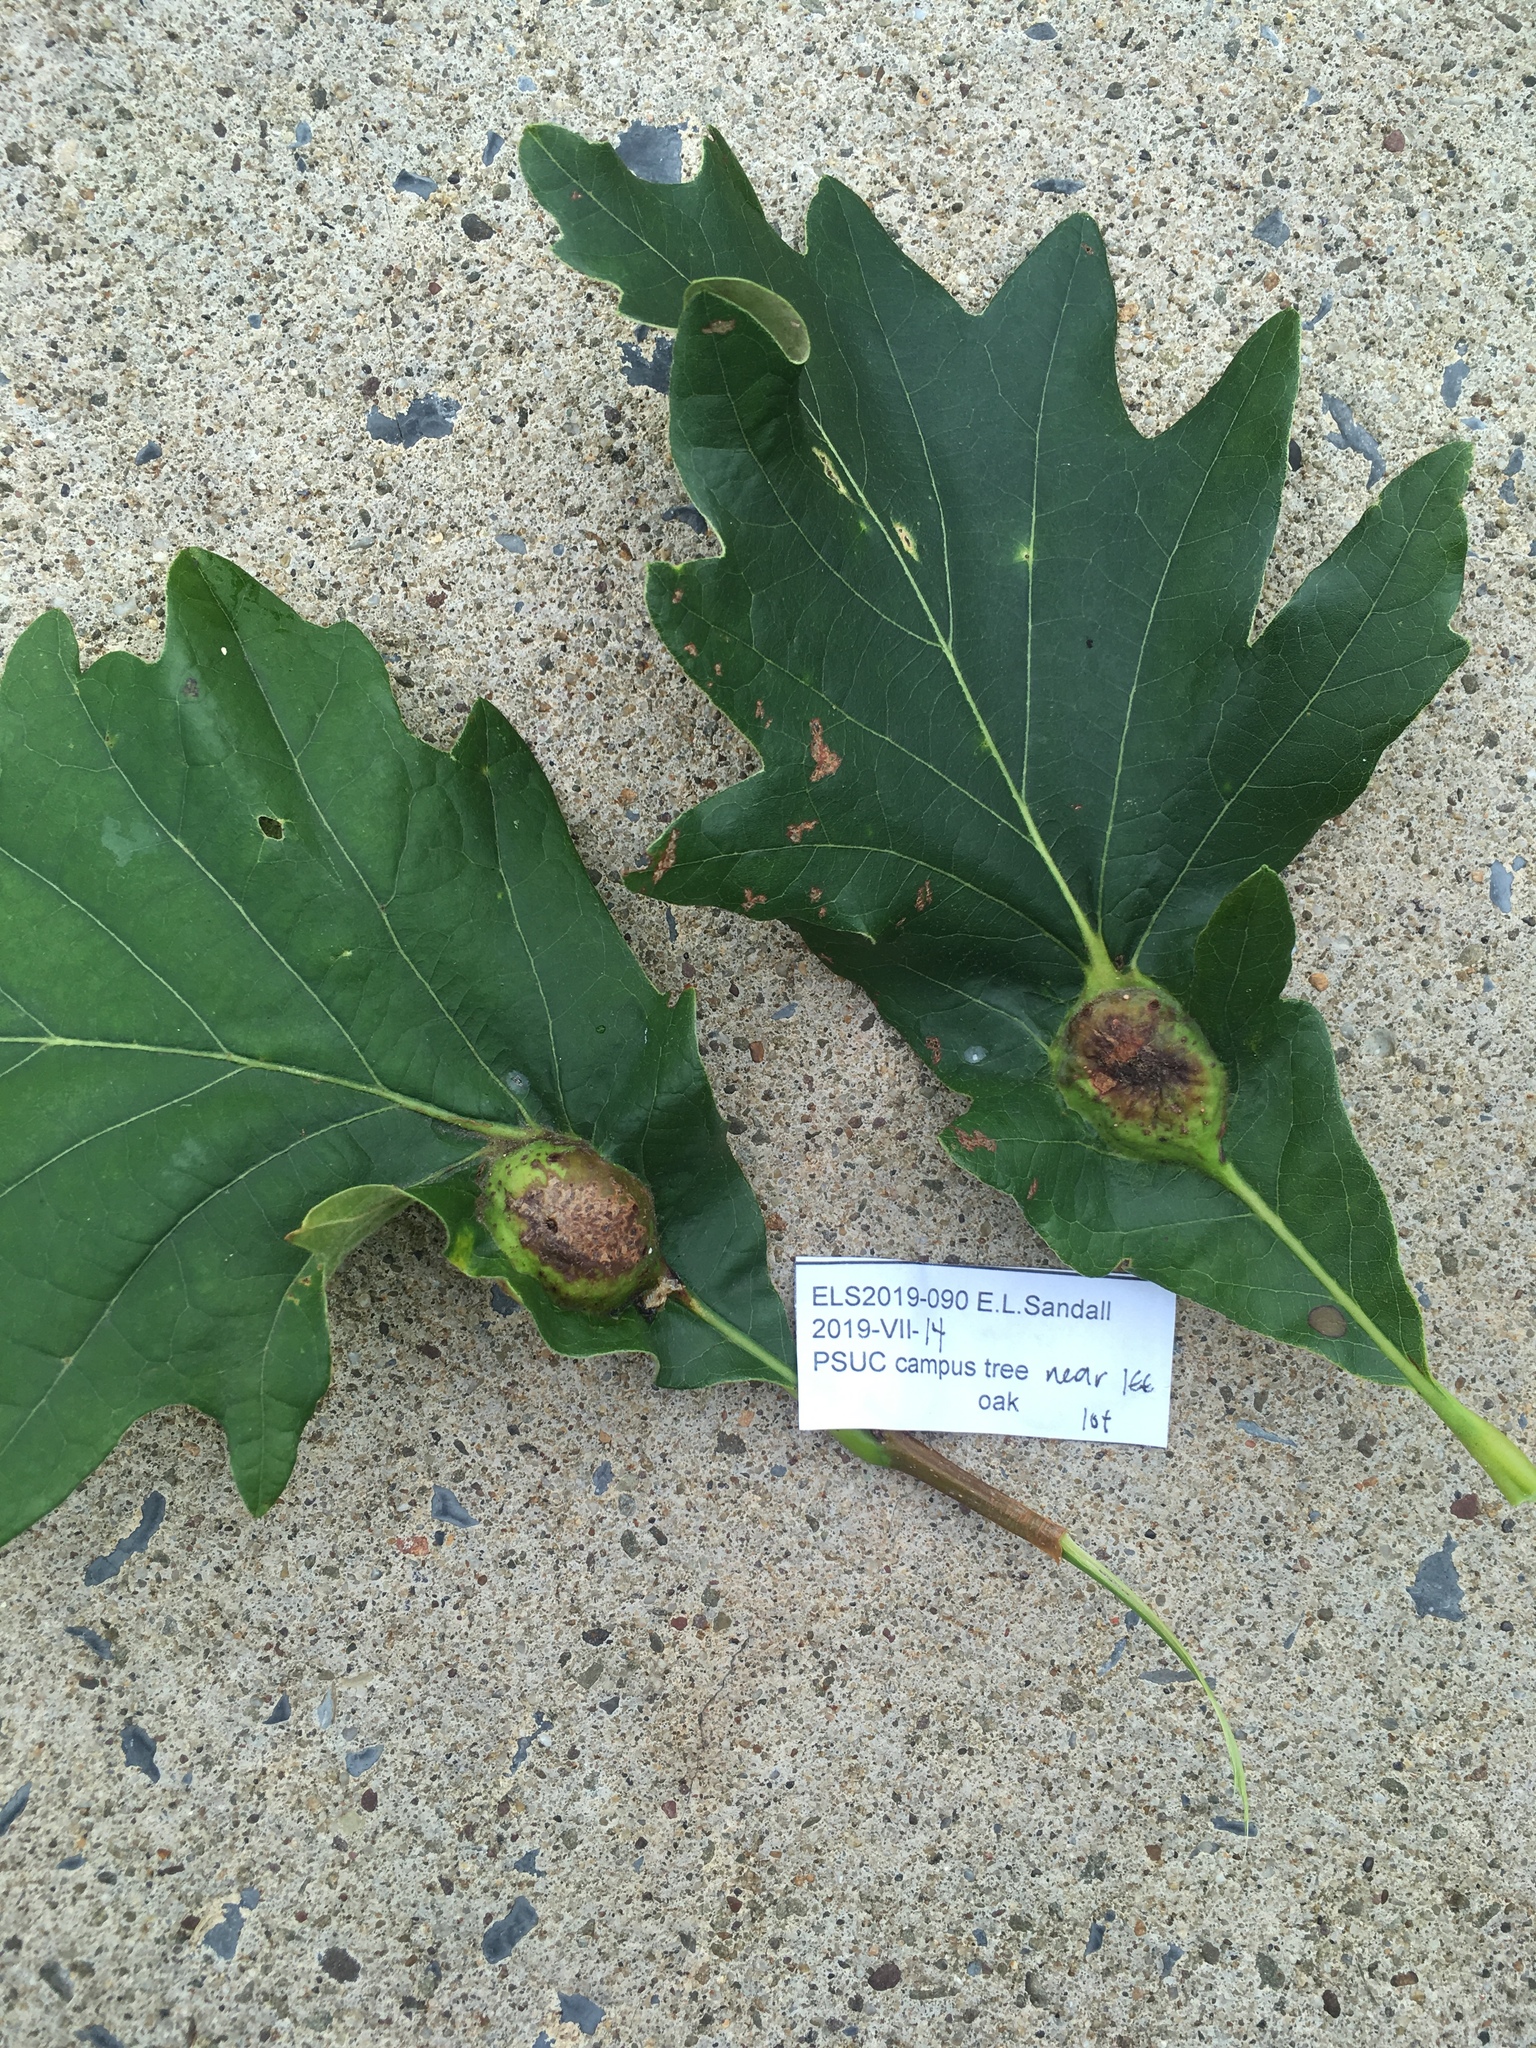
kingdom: Animalia
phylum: Arthropoda
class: Insecta
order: Hymenoptera
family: Cynipidae
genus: Andricus
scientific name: Andricus
